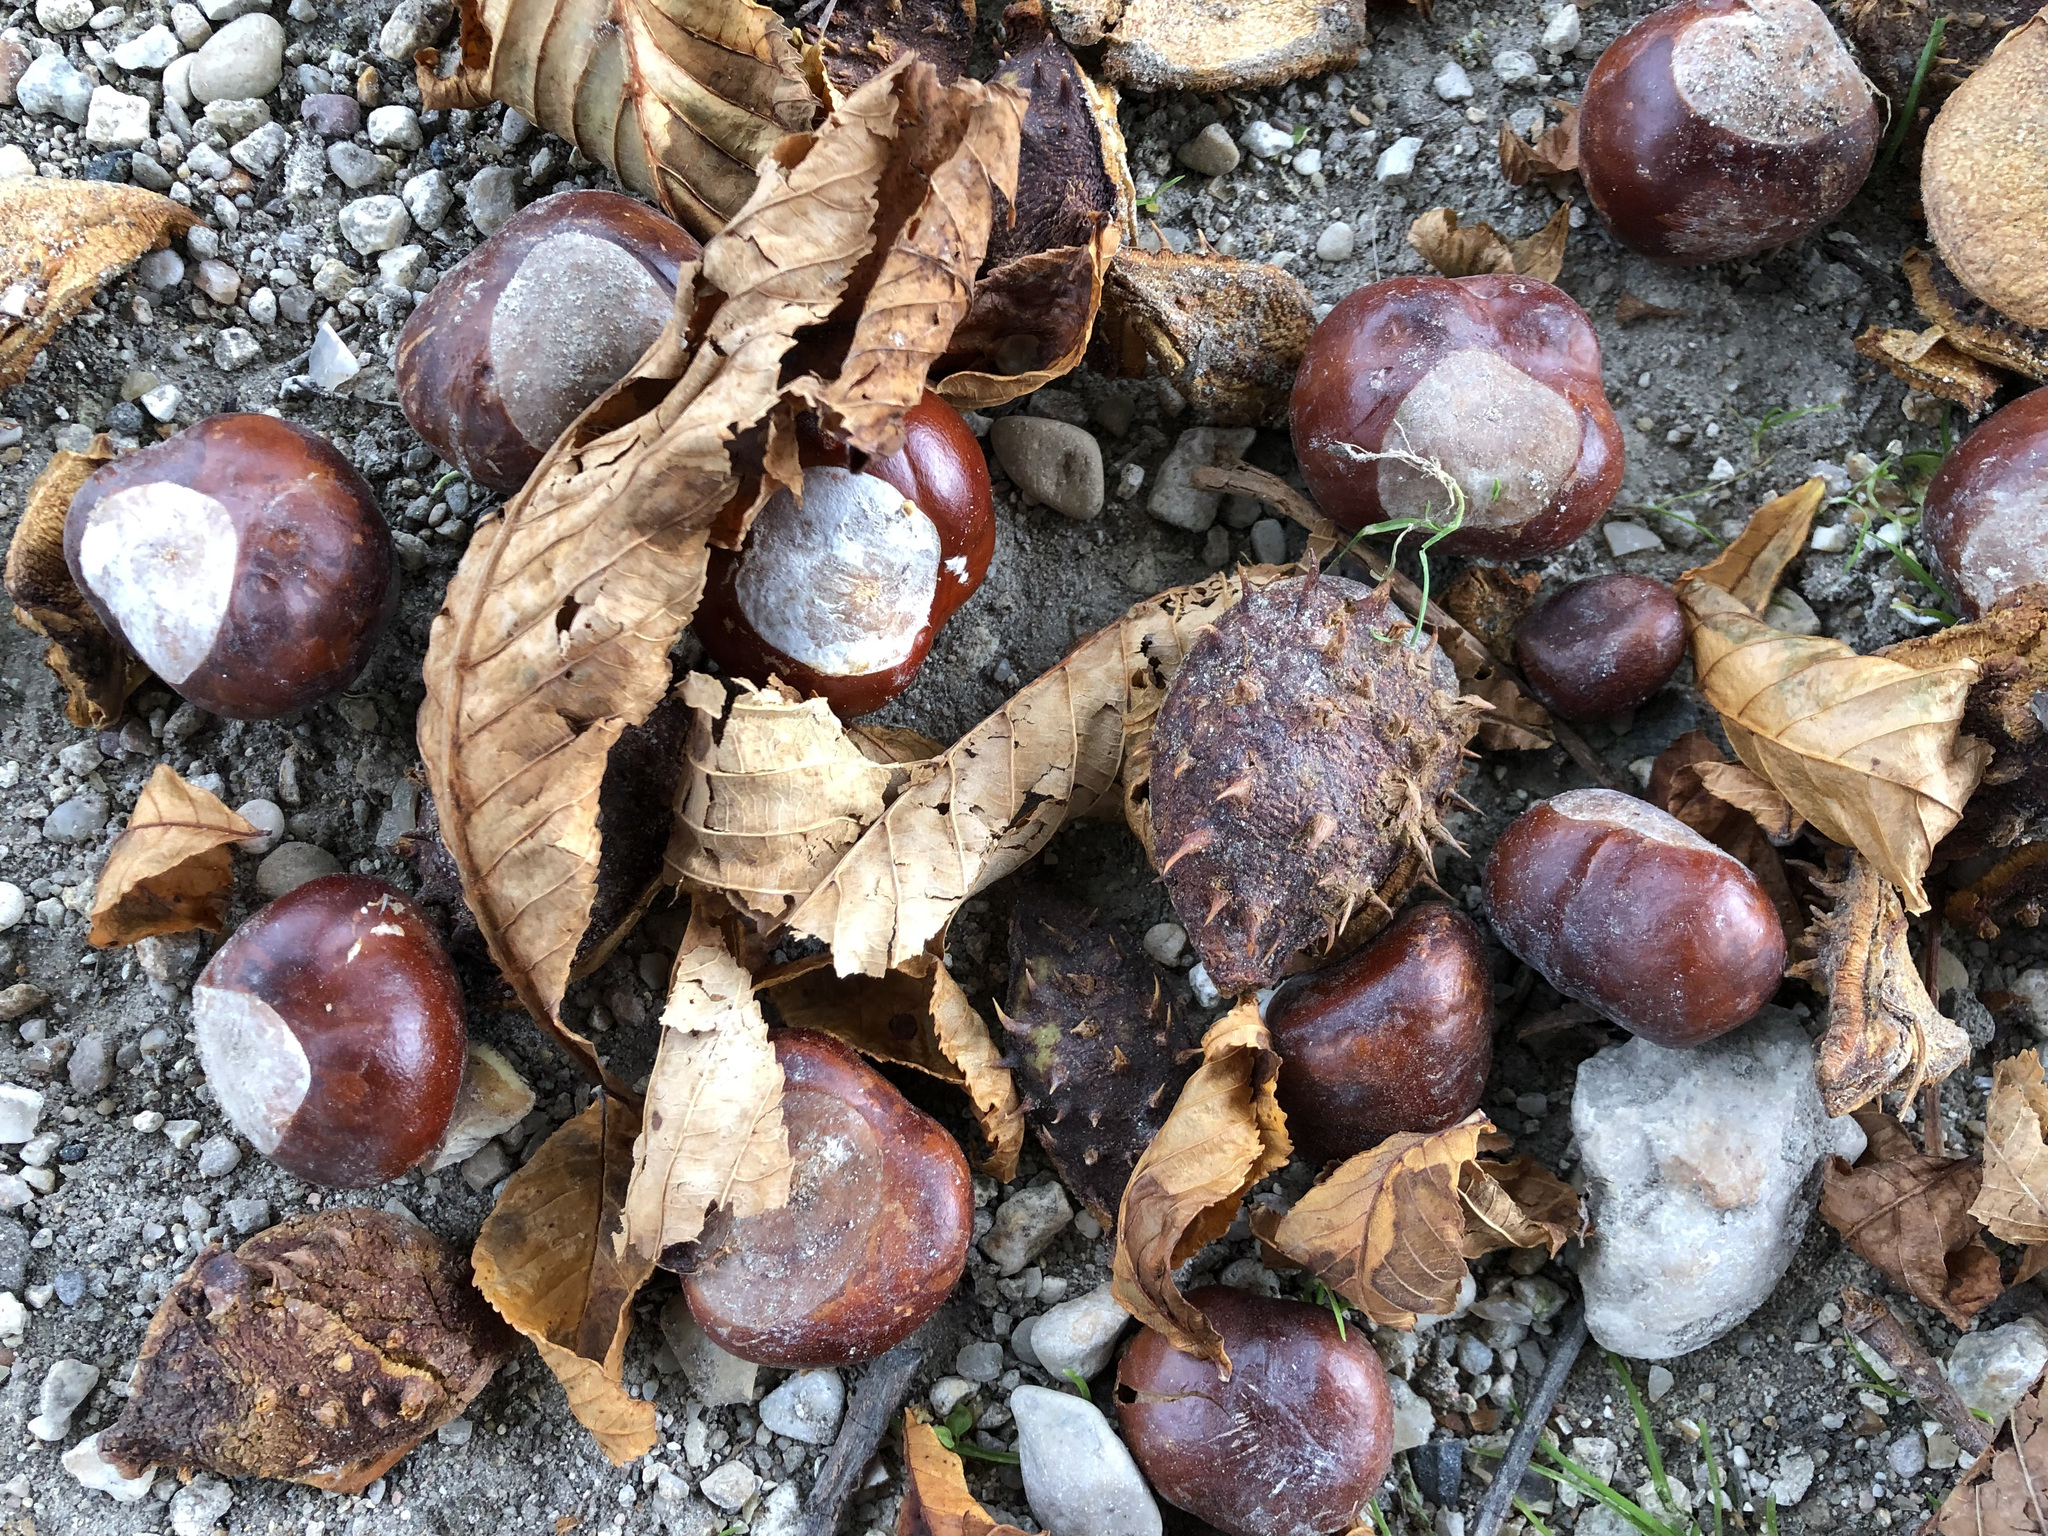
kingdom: Plantae
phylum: Tracheophyta
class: Magnoliopsida
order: Sapindales
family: Sapindaceae
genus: Aesculus
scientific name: Aesculus hippocastanum
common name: Horse-chestnut
